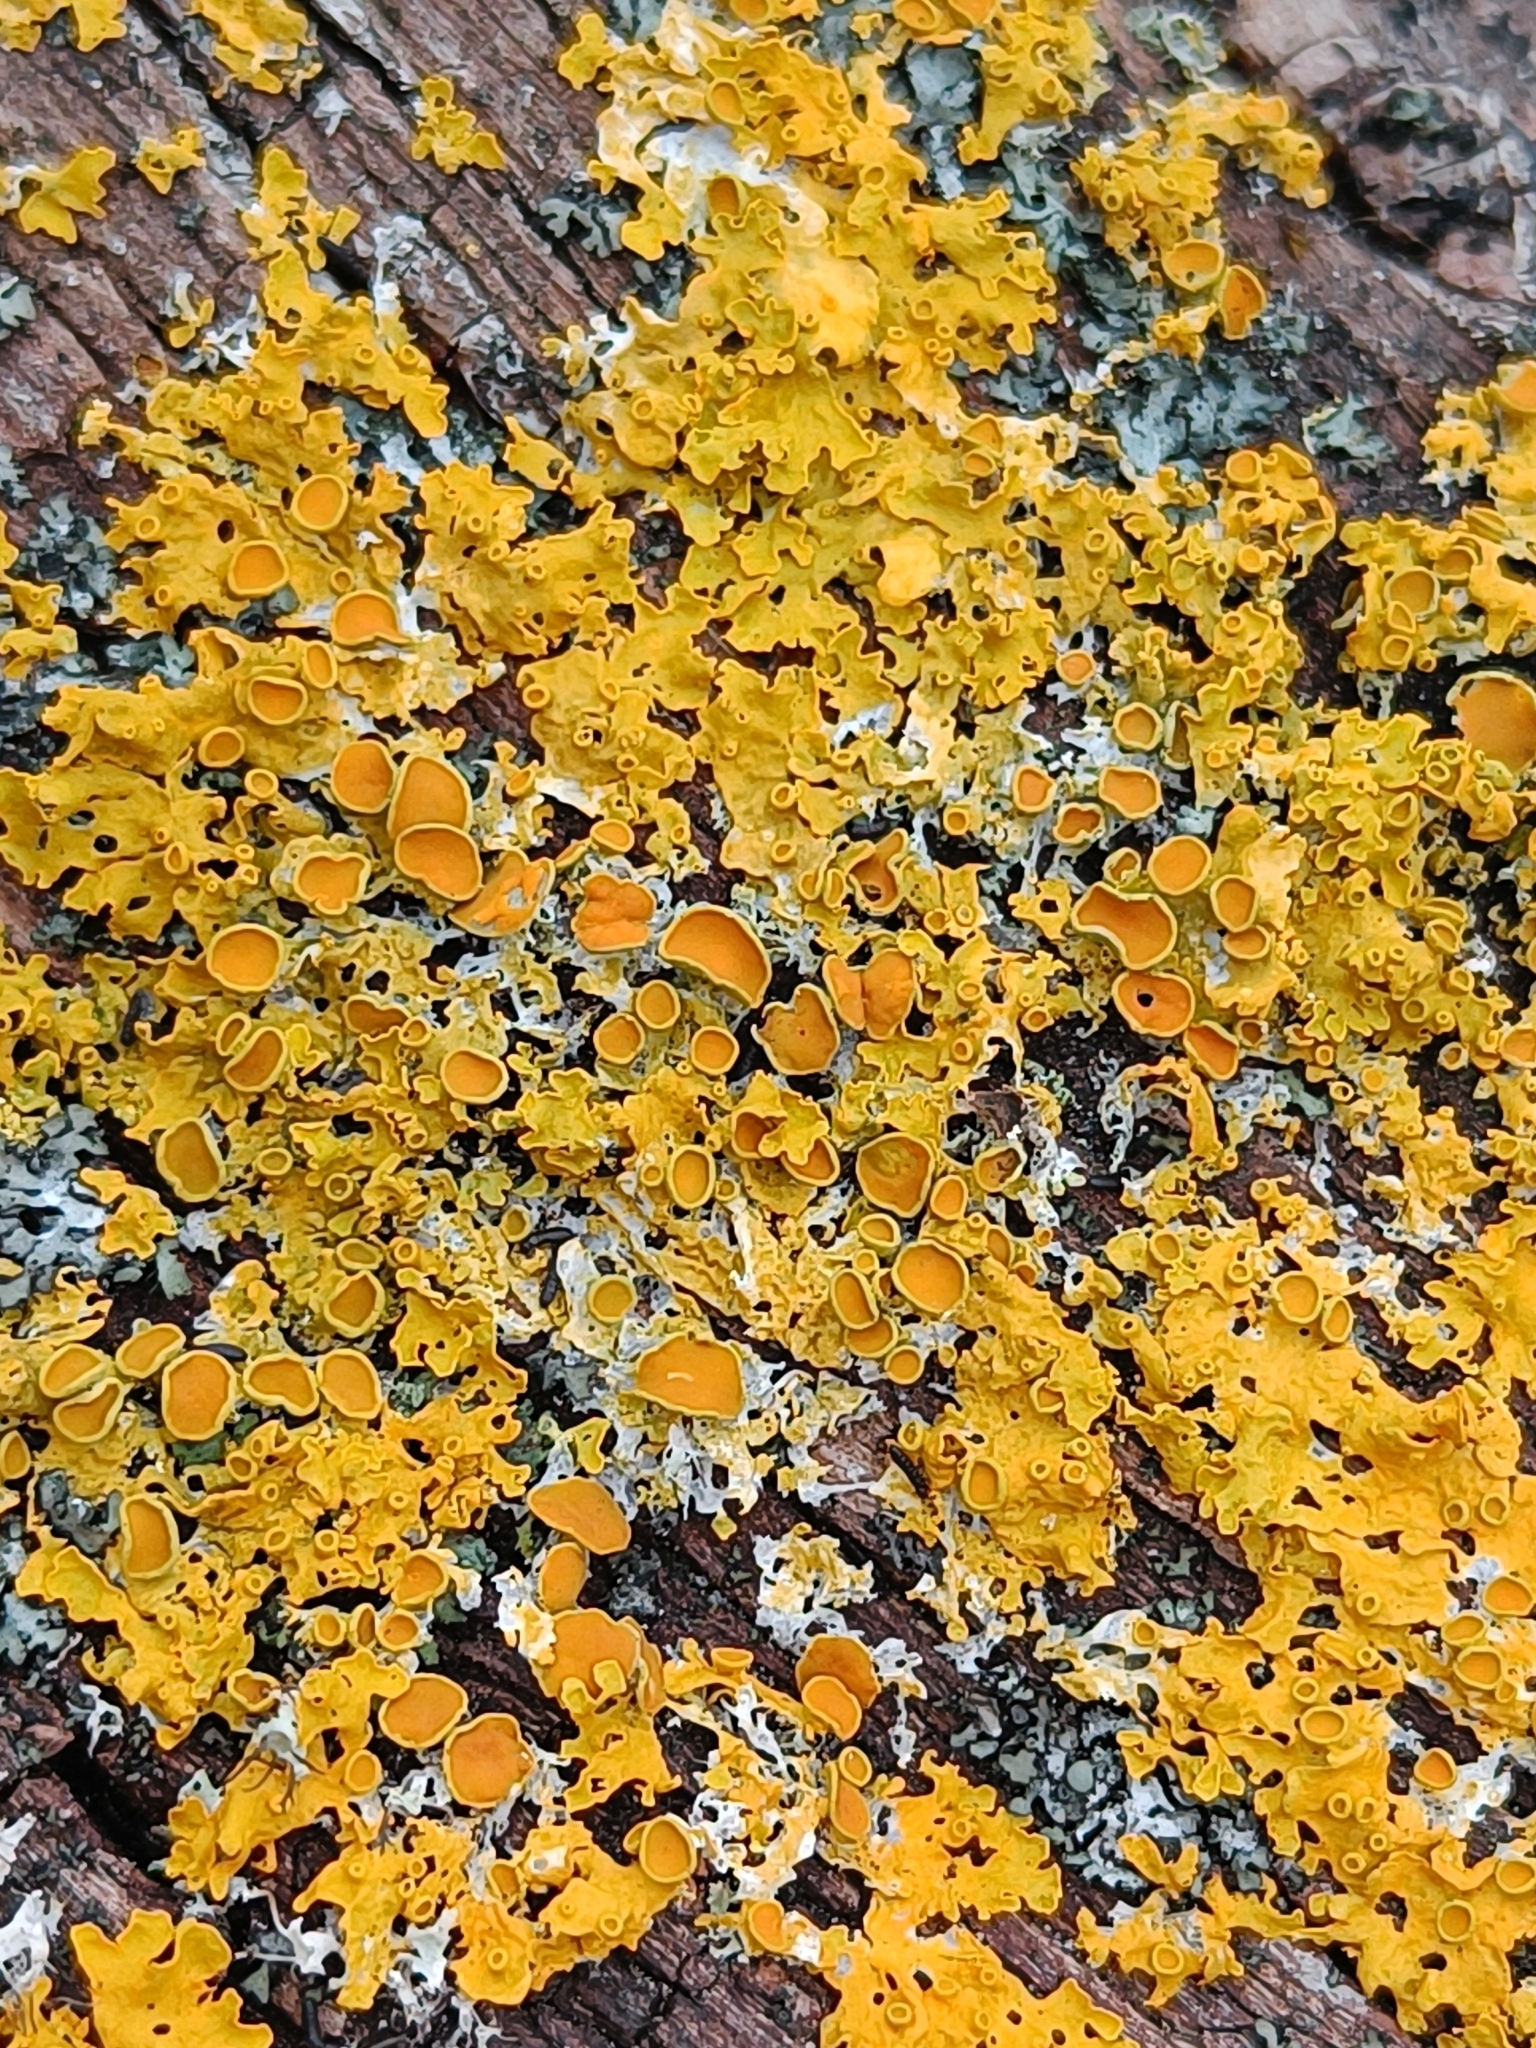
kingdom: Fungi
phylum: Ascomycota
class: Lecanoromycetes
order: Teloschistales
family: Teloschistaceae
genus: Xanthoria
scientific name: Xanthoria parietina
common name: Common orange lichen
